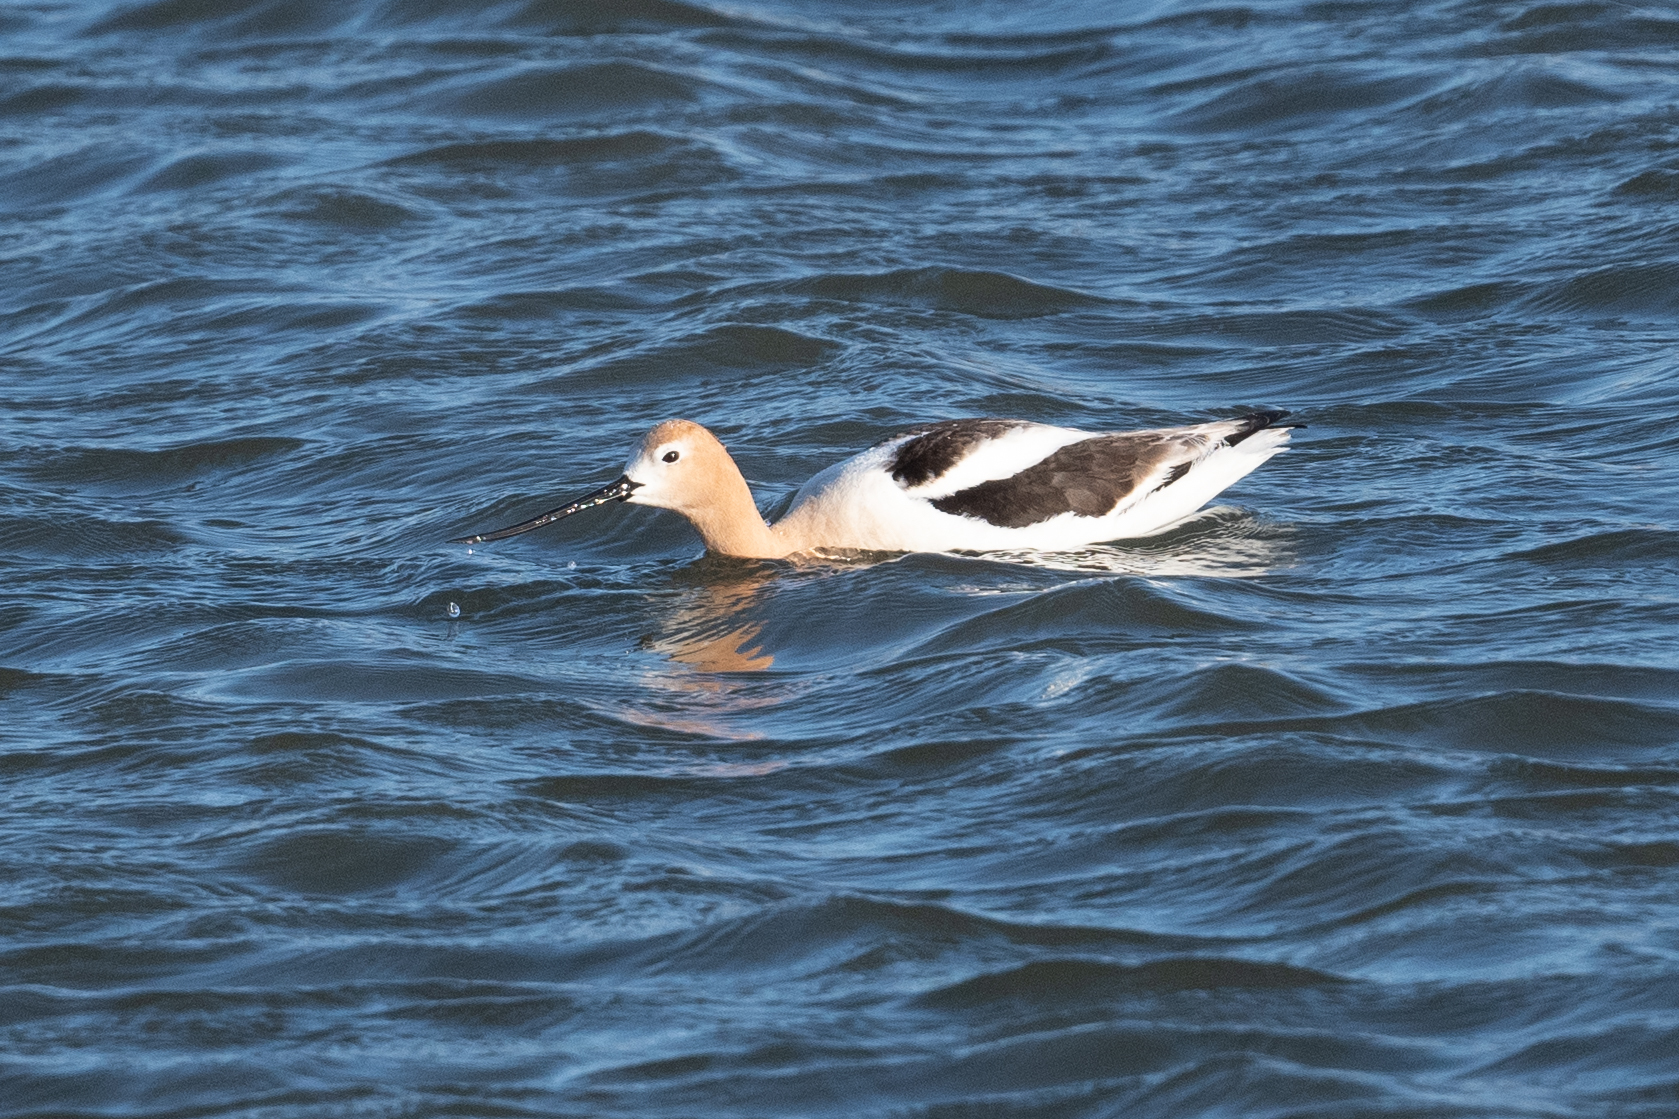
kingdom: Animalia
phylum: Chordata
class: Aves
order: Charadriiformes
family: Recurvirostridae
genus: Recurvirostra
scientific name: Recurvirostra americana
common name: American avocet
